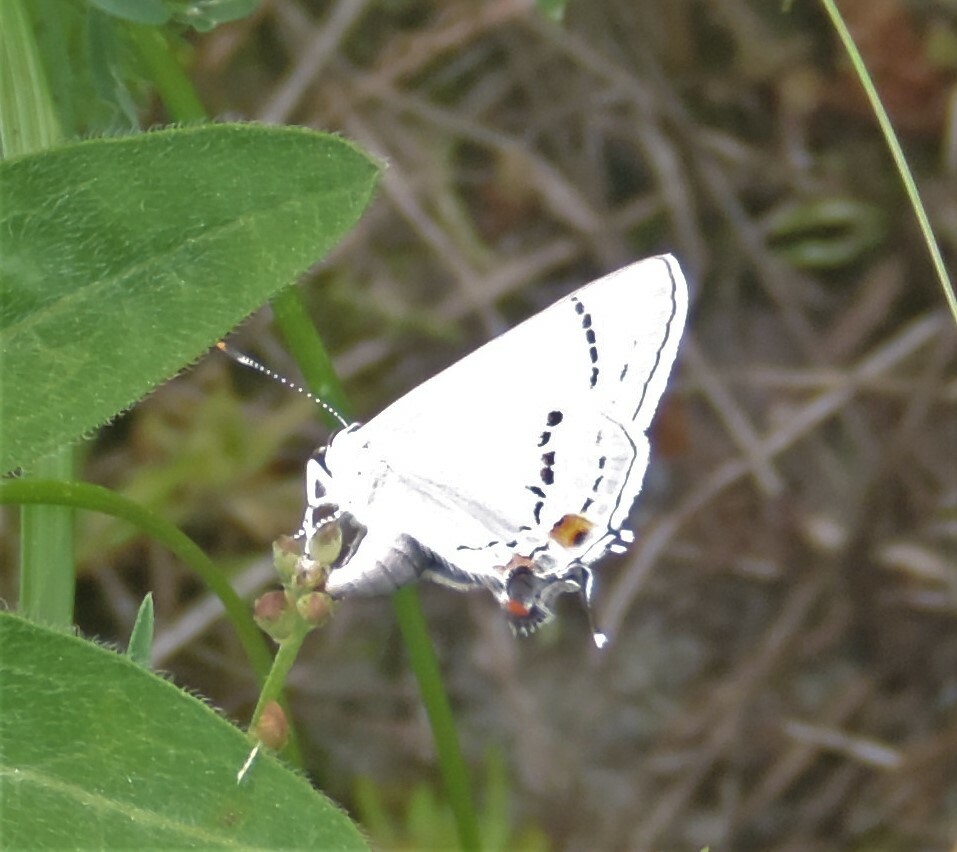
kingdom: Animalia
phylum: Arthropoda
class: Insecta
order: Lepidoptera
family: Lycaenidae
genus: Strymon
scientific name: Strymon melinus
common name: Gray hairstreak
